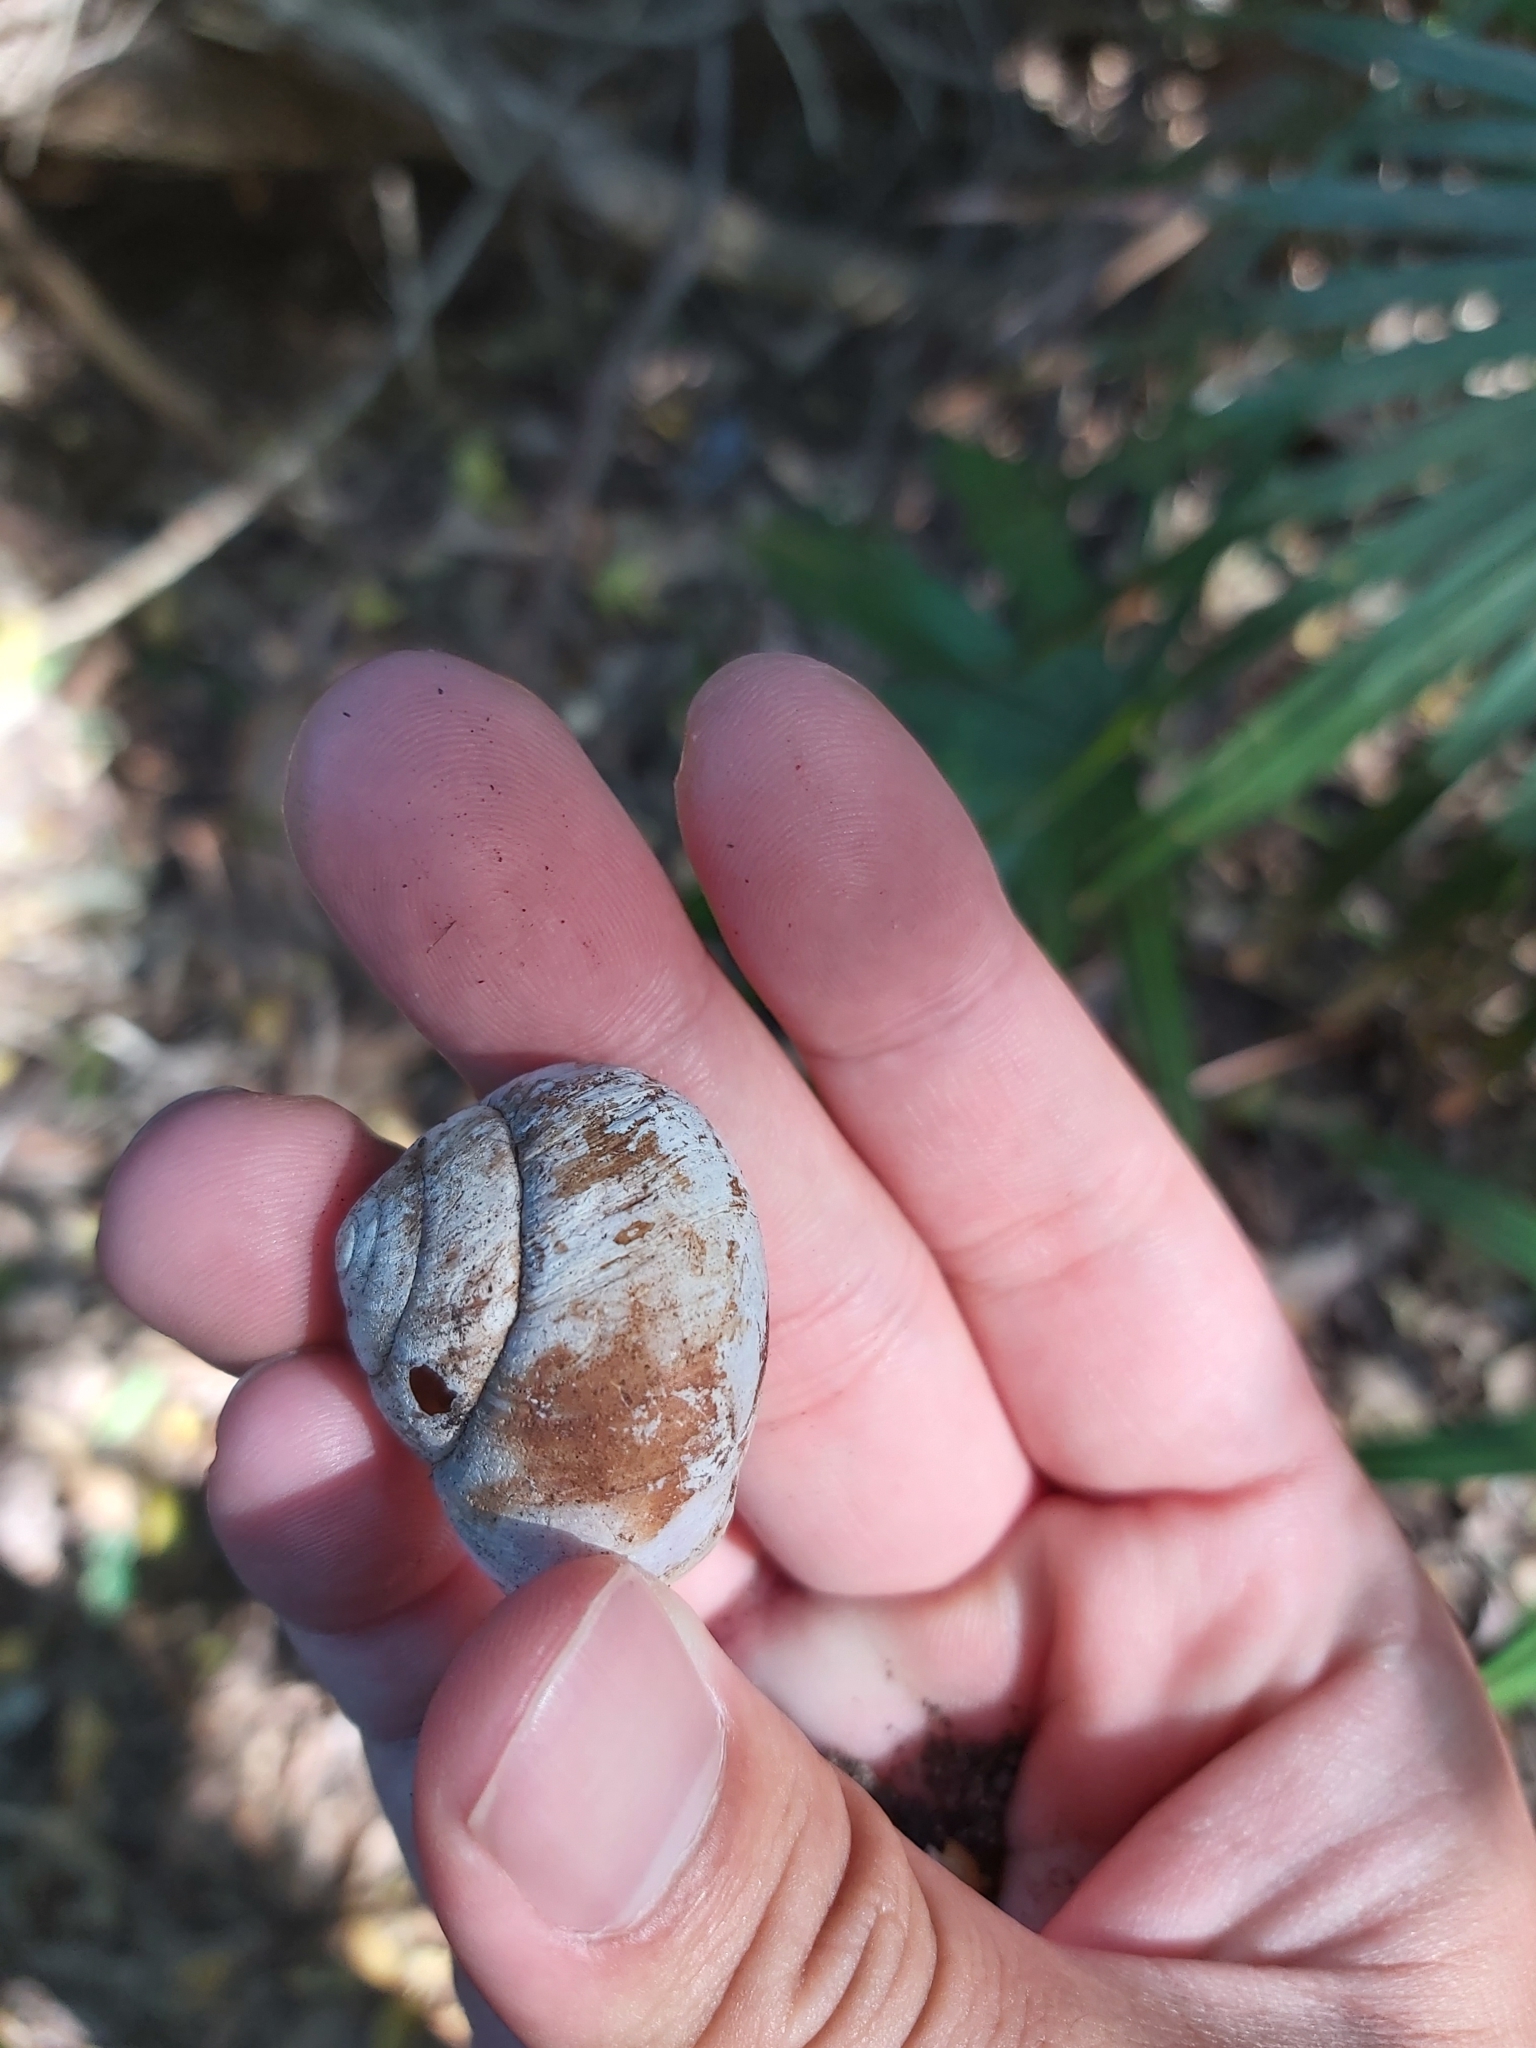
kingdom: Animalia
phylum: Mollusca
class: Gastropoda
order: Stylommatophora
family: Camaenidae
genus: Sauroconcha
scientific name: Sauroconcha marshalli
